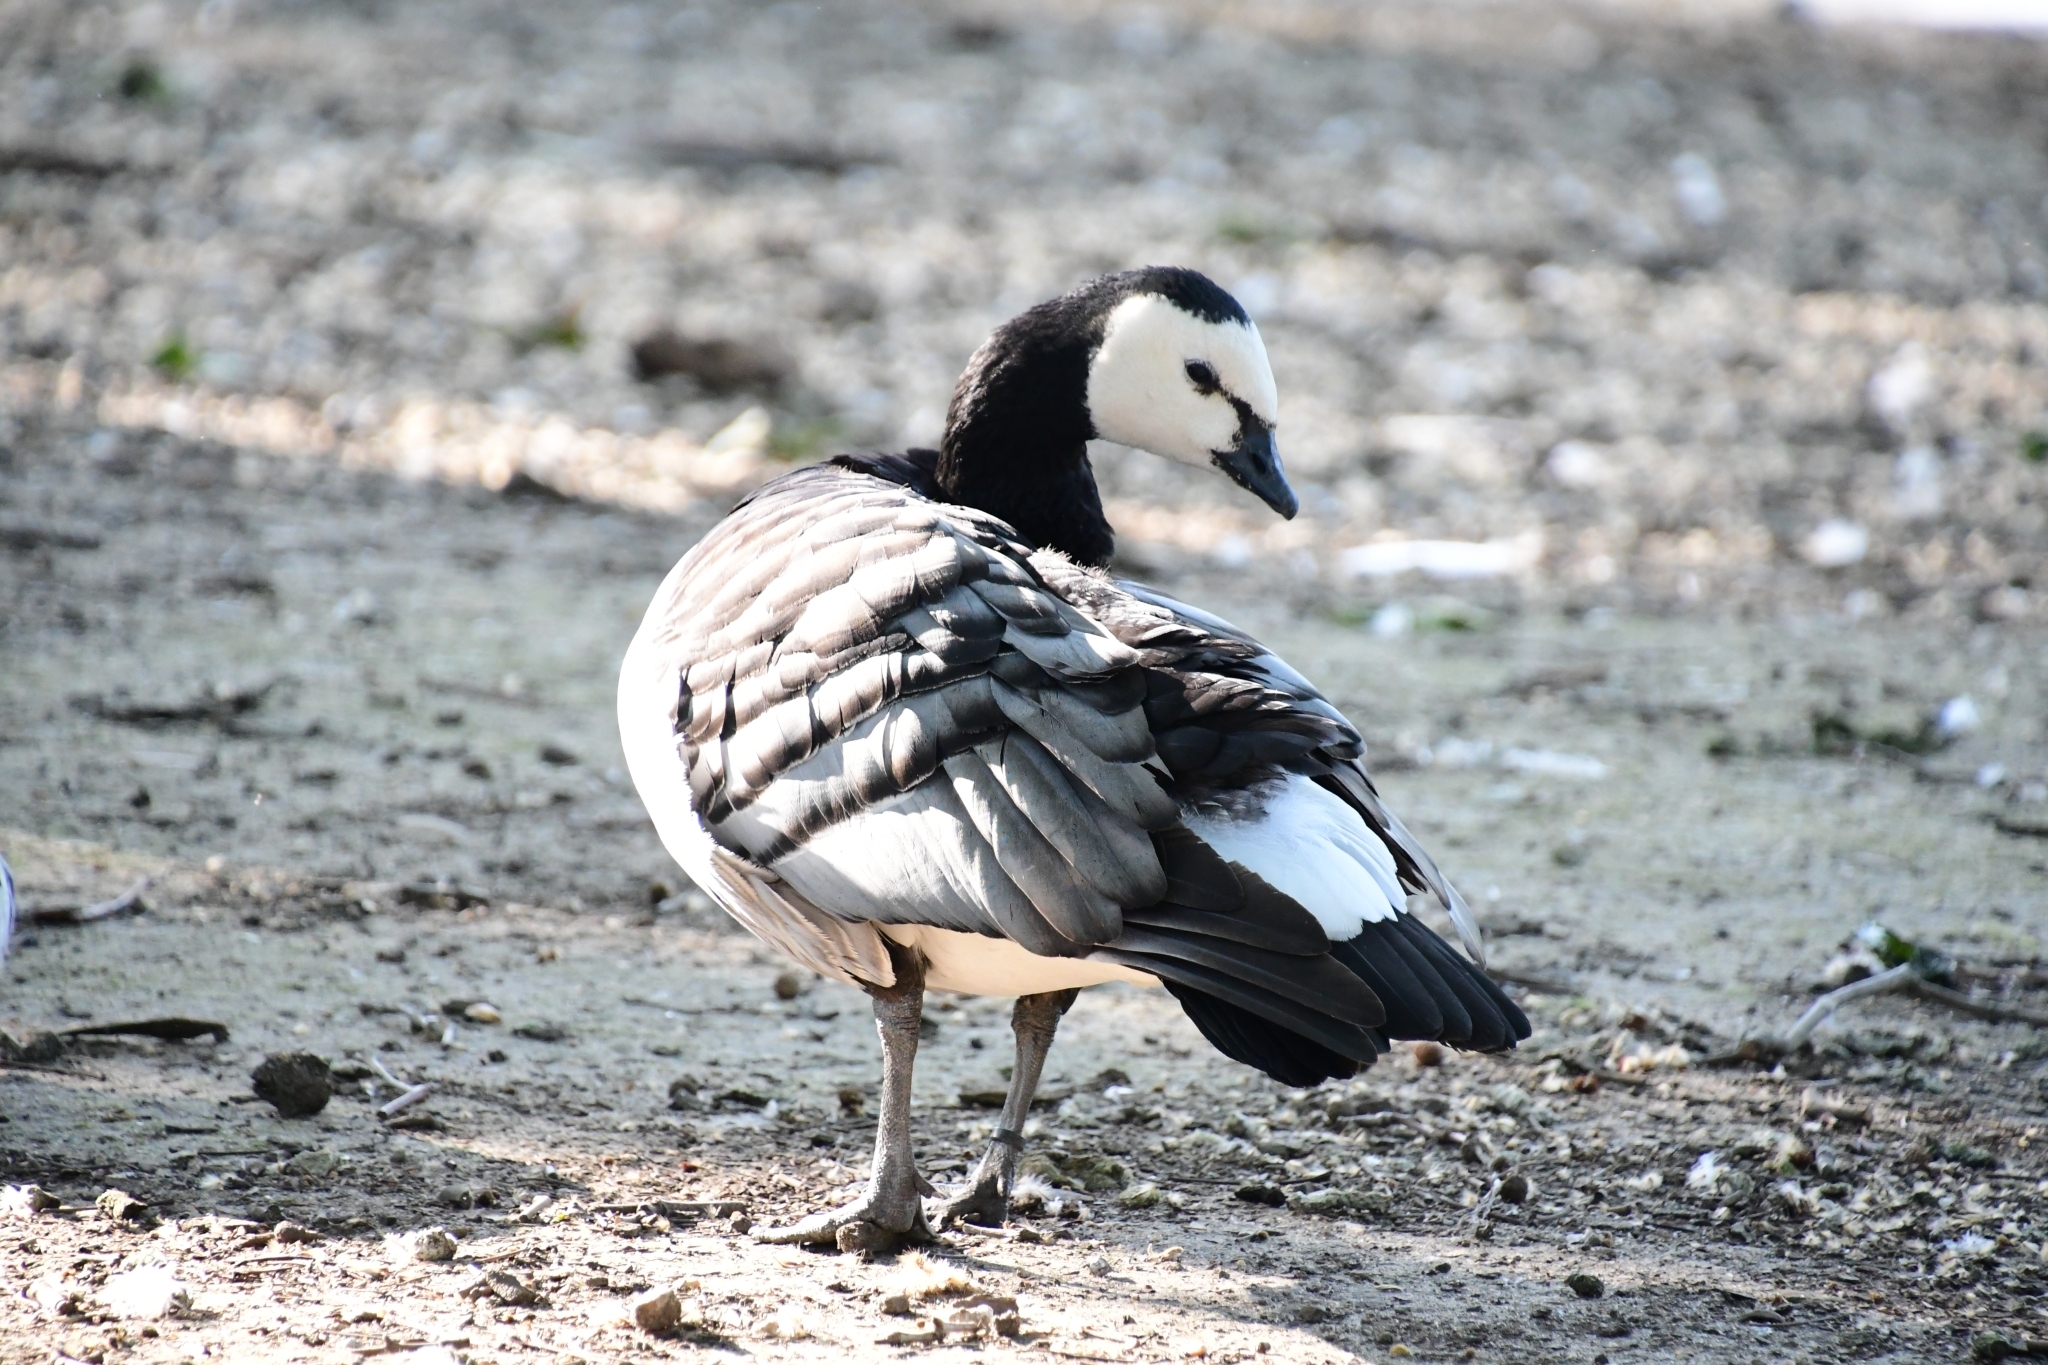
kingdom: Animalia
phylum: Chordata
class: Aves
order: Anseriformes
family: Anatidae
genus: Branta
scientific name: Branta leucopsis
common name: Barnacle goose
